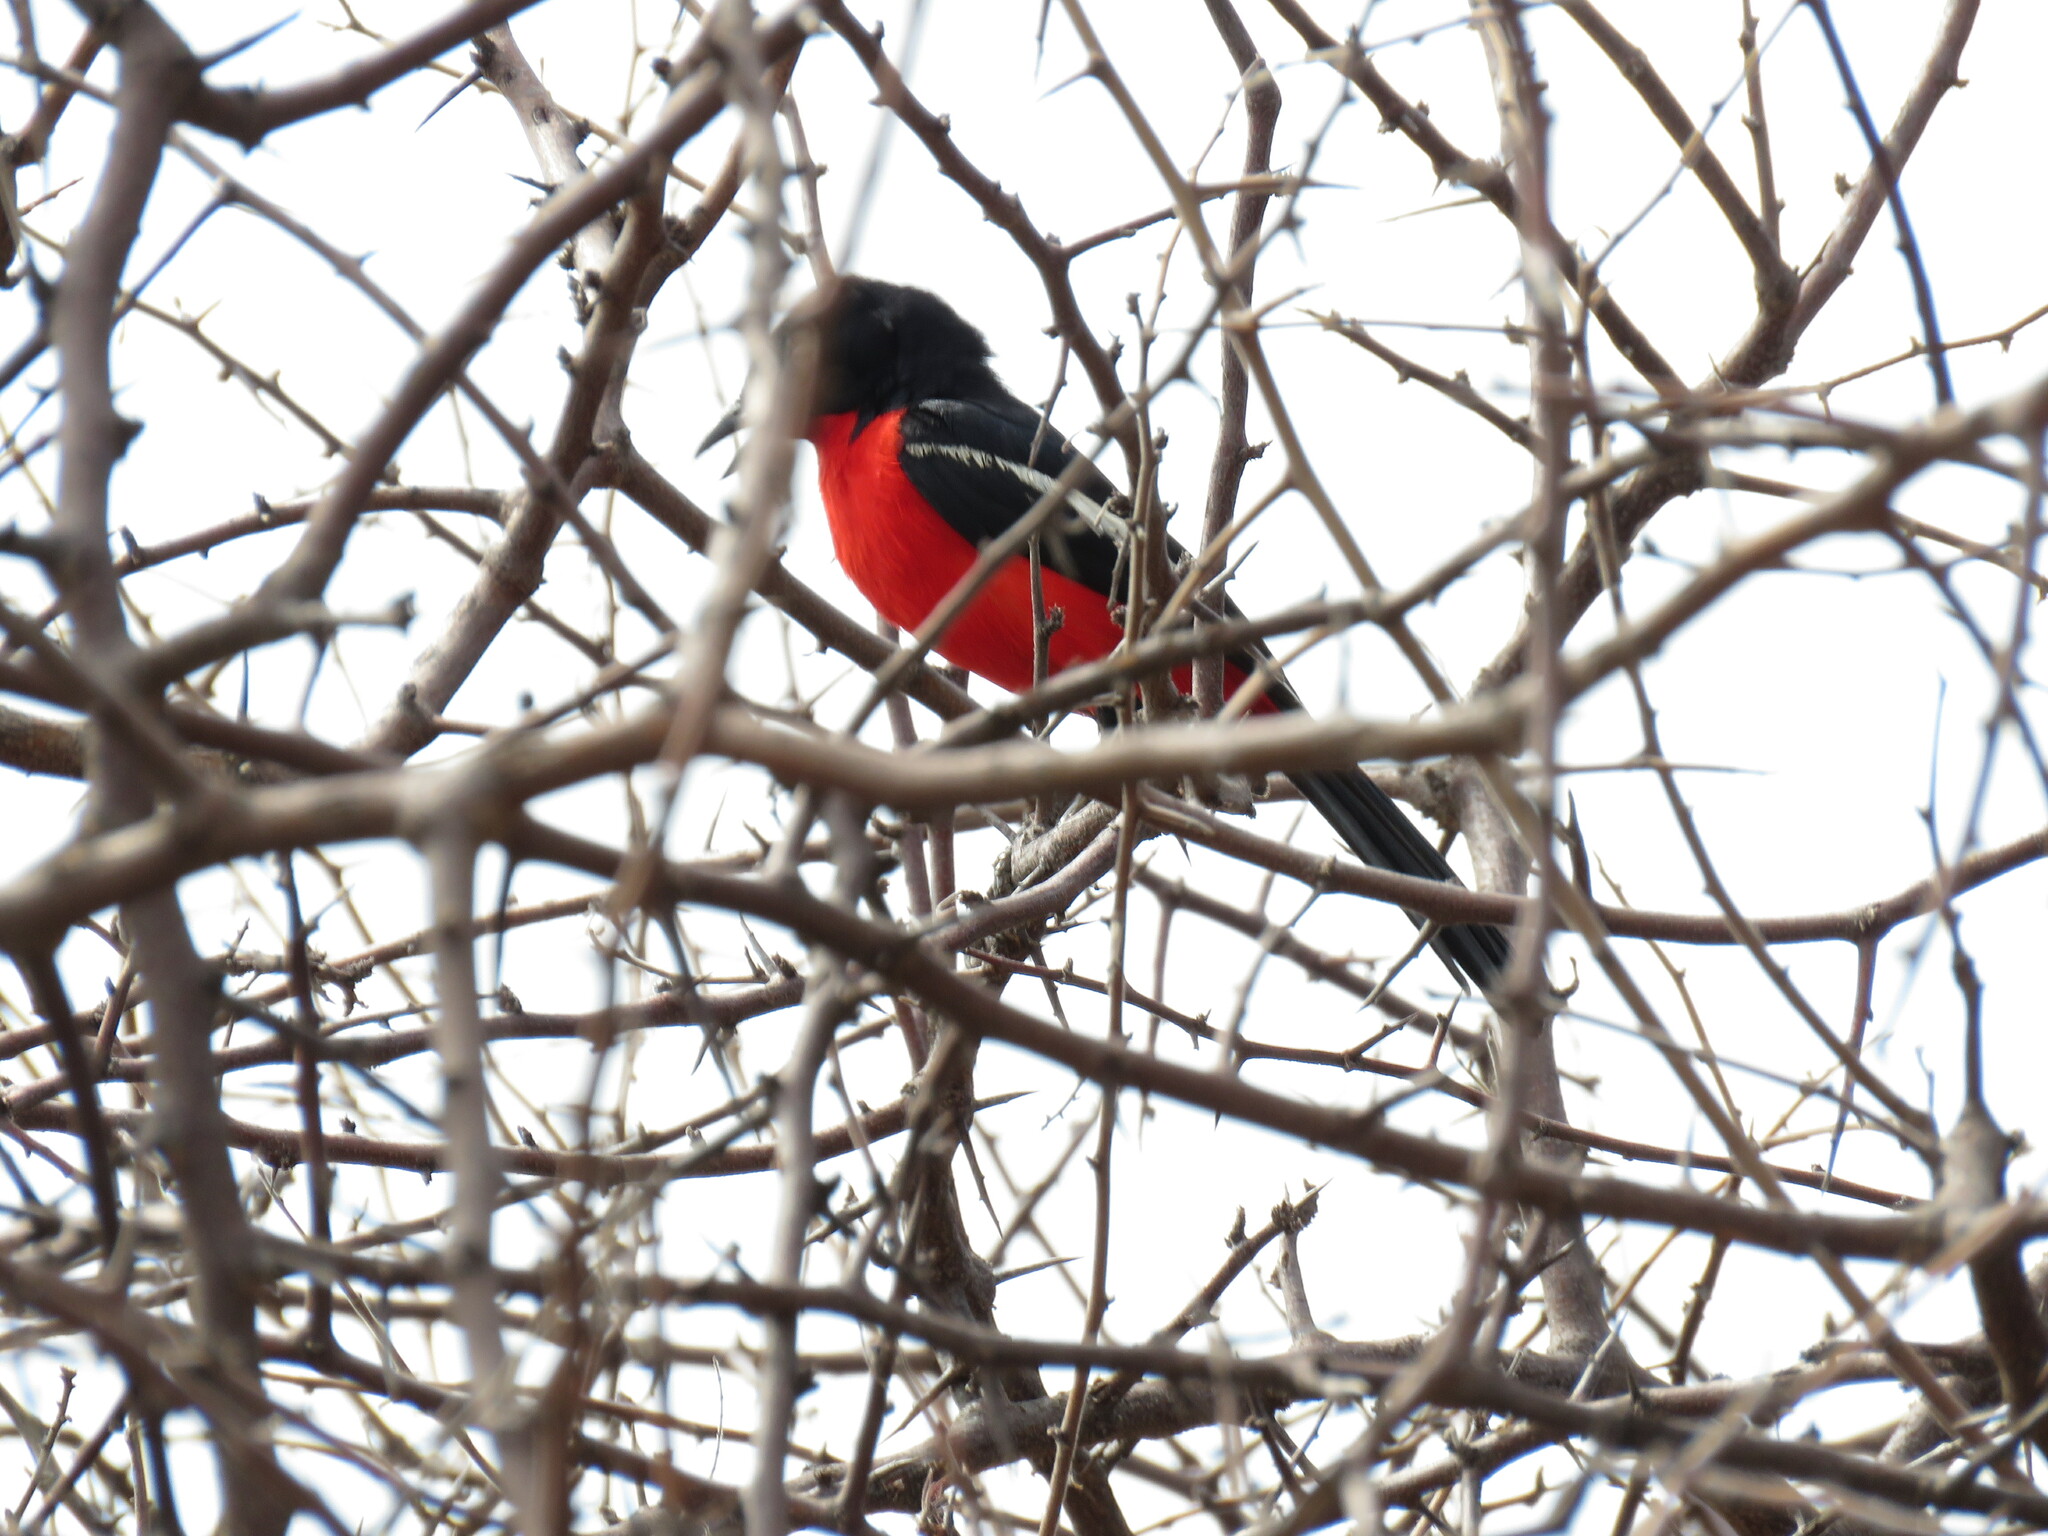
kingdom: Animalia
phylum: Chordata
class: Aves
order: Passeriformes
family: Malaconotidae
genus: Laniarius
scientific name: Laniarius atrococcineus
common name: Crimson-breasted shrike
